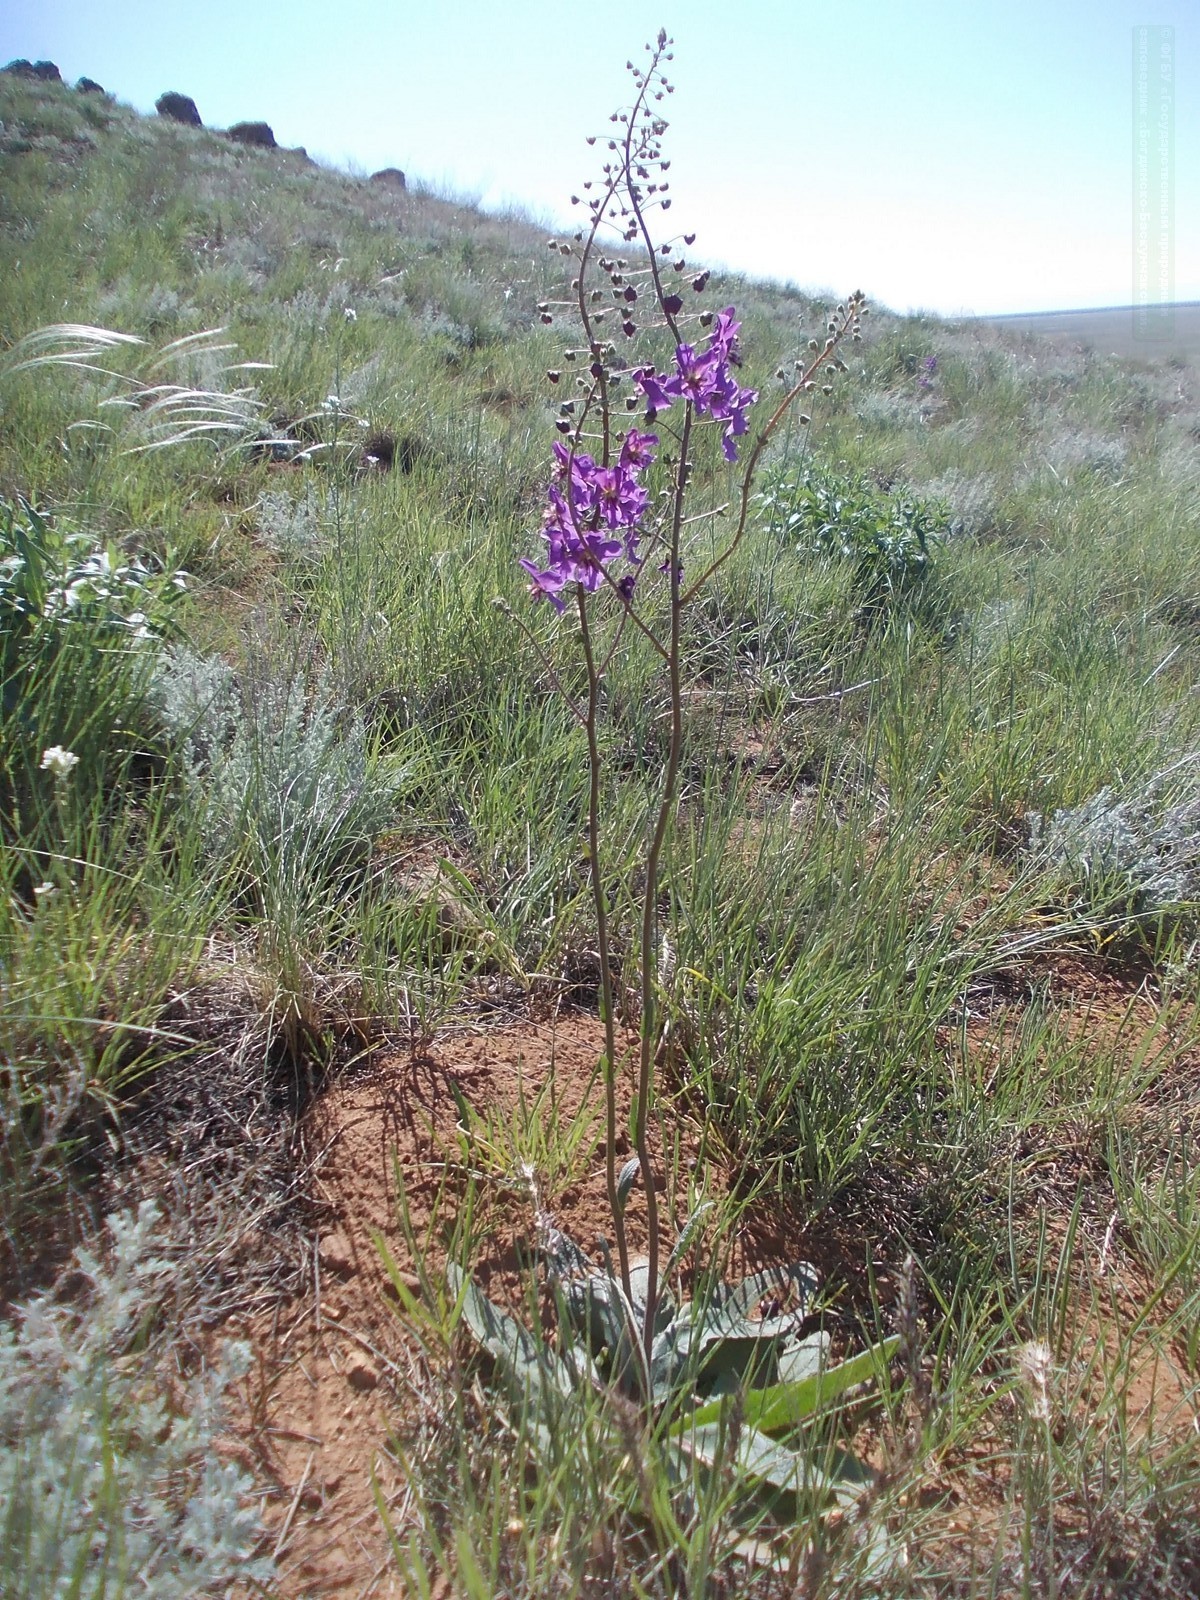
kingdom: Plantae
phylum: Tracheophyta
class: Magnoliopsida
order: Lamiales
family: Scrophulariaceae
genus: Verbascum
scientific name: Verbascum phoeniceum
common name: Purple mullein
